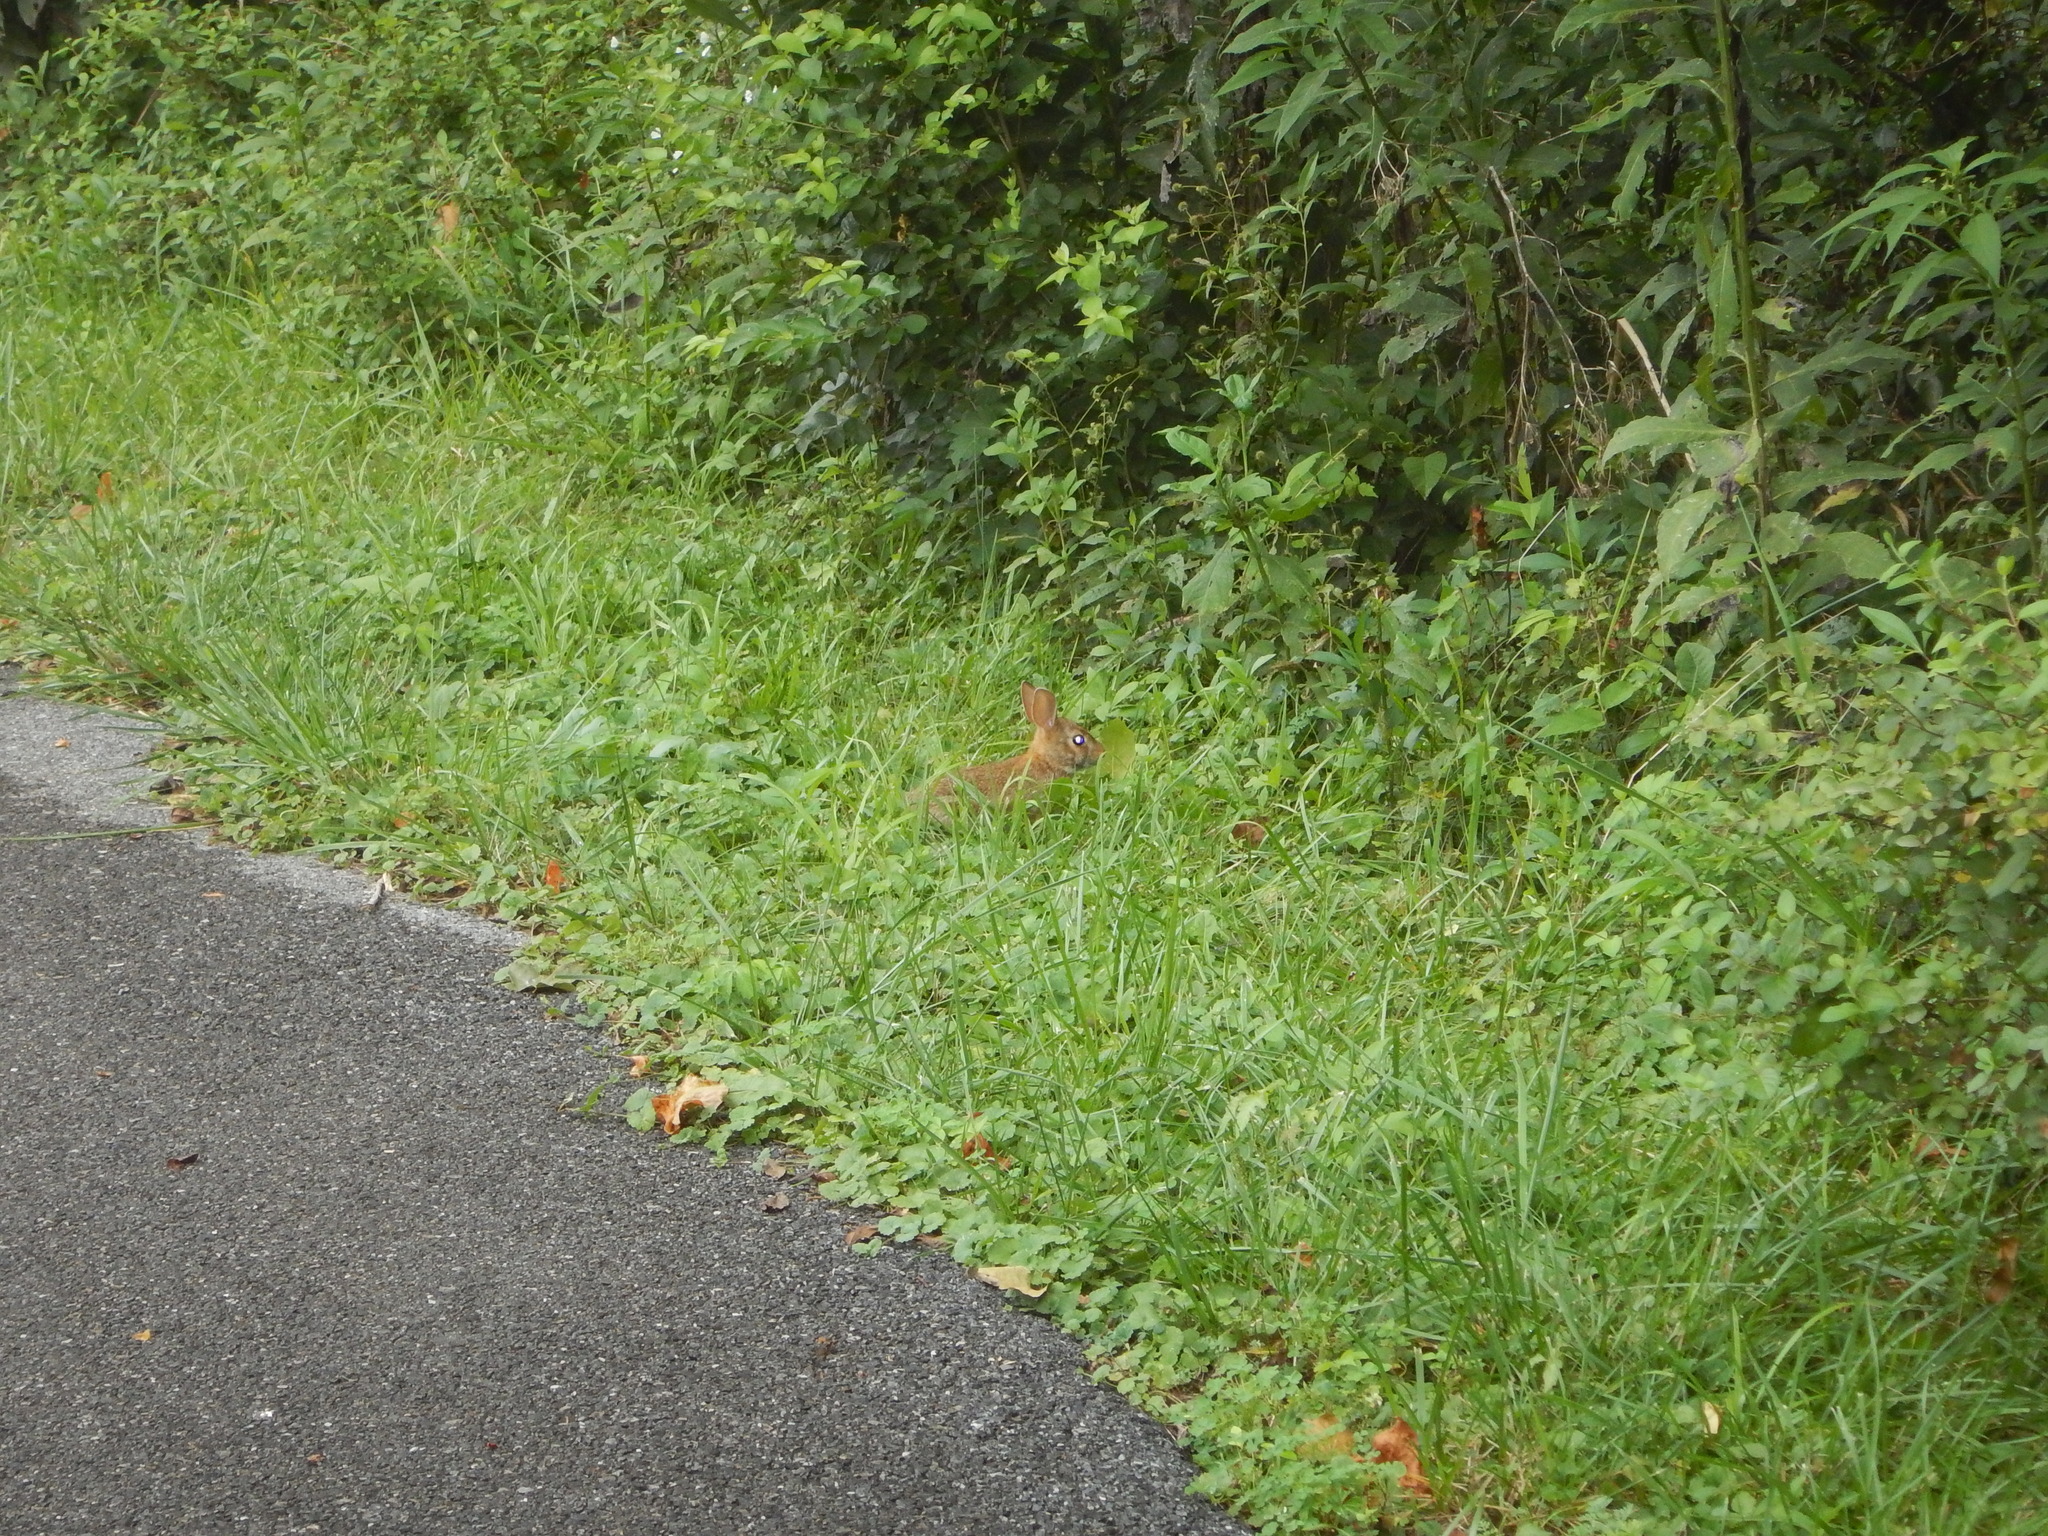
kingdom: Animalia
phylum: Chordata
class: Mammalia
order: Lagomorpha
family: Leporidae
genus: Sylvilagus
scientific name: Sylvilagus floridanus
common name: Eastern cottontail
